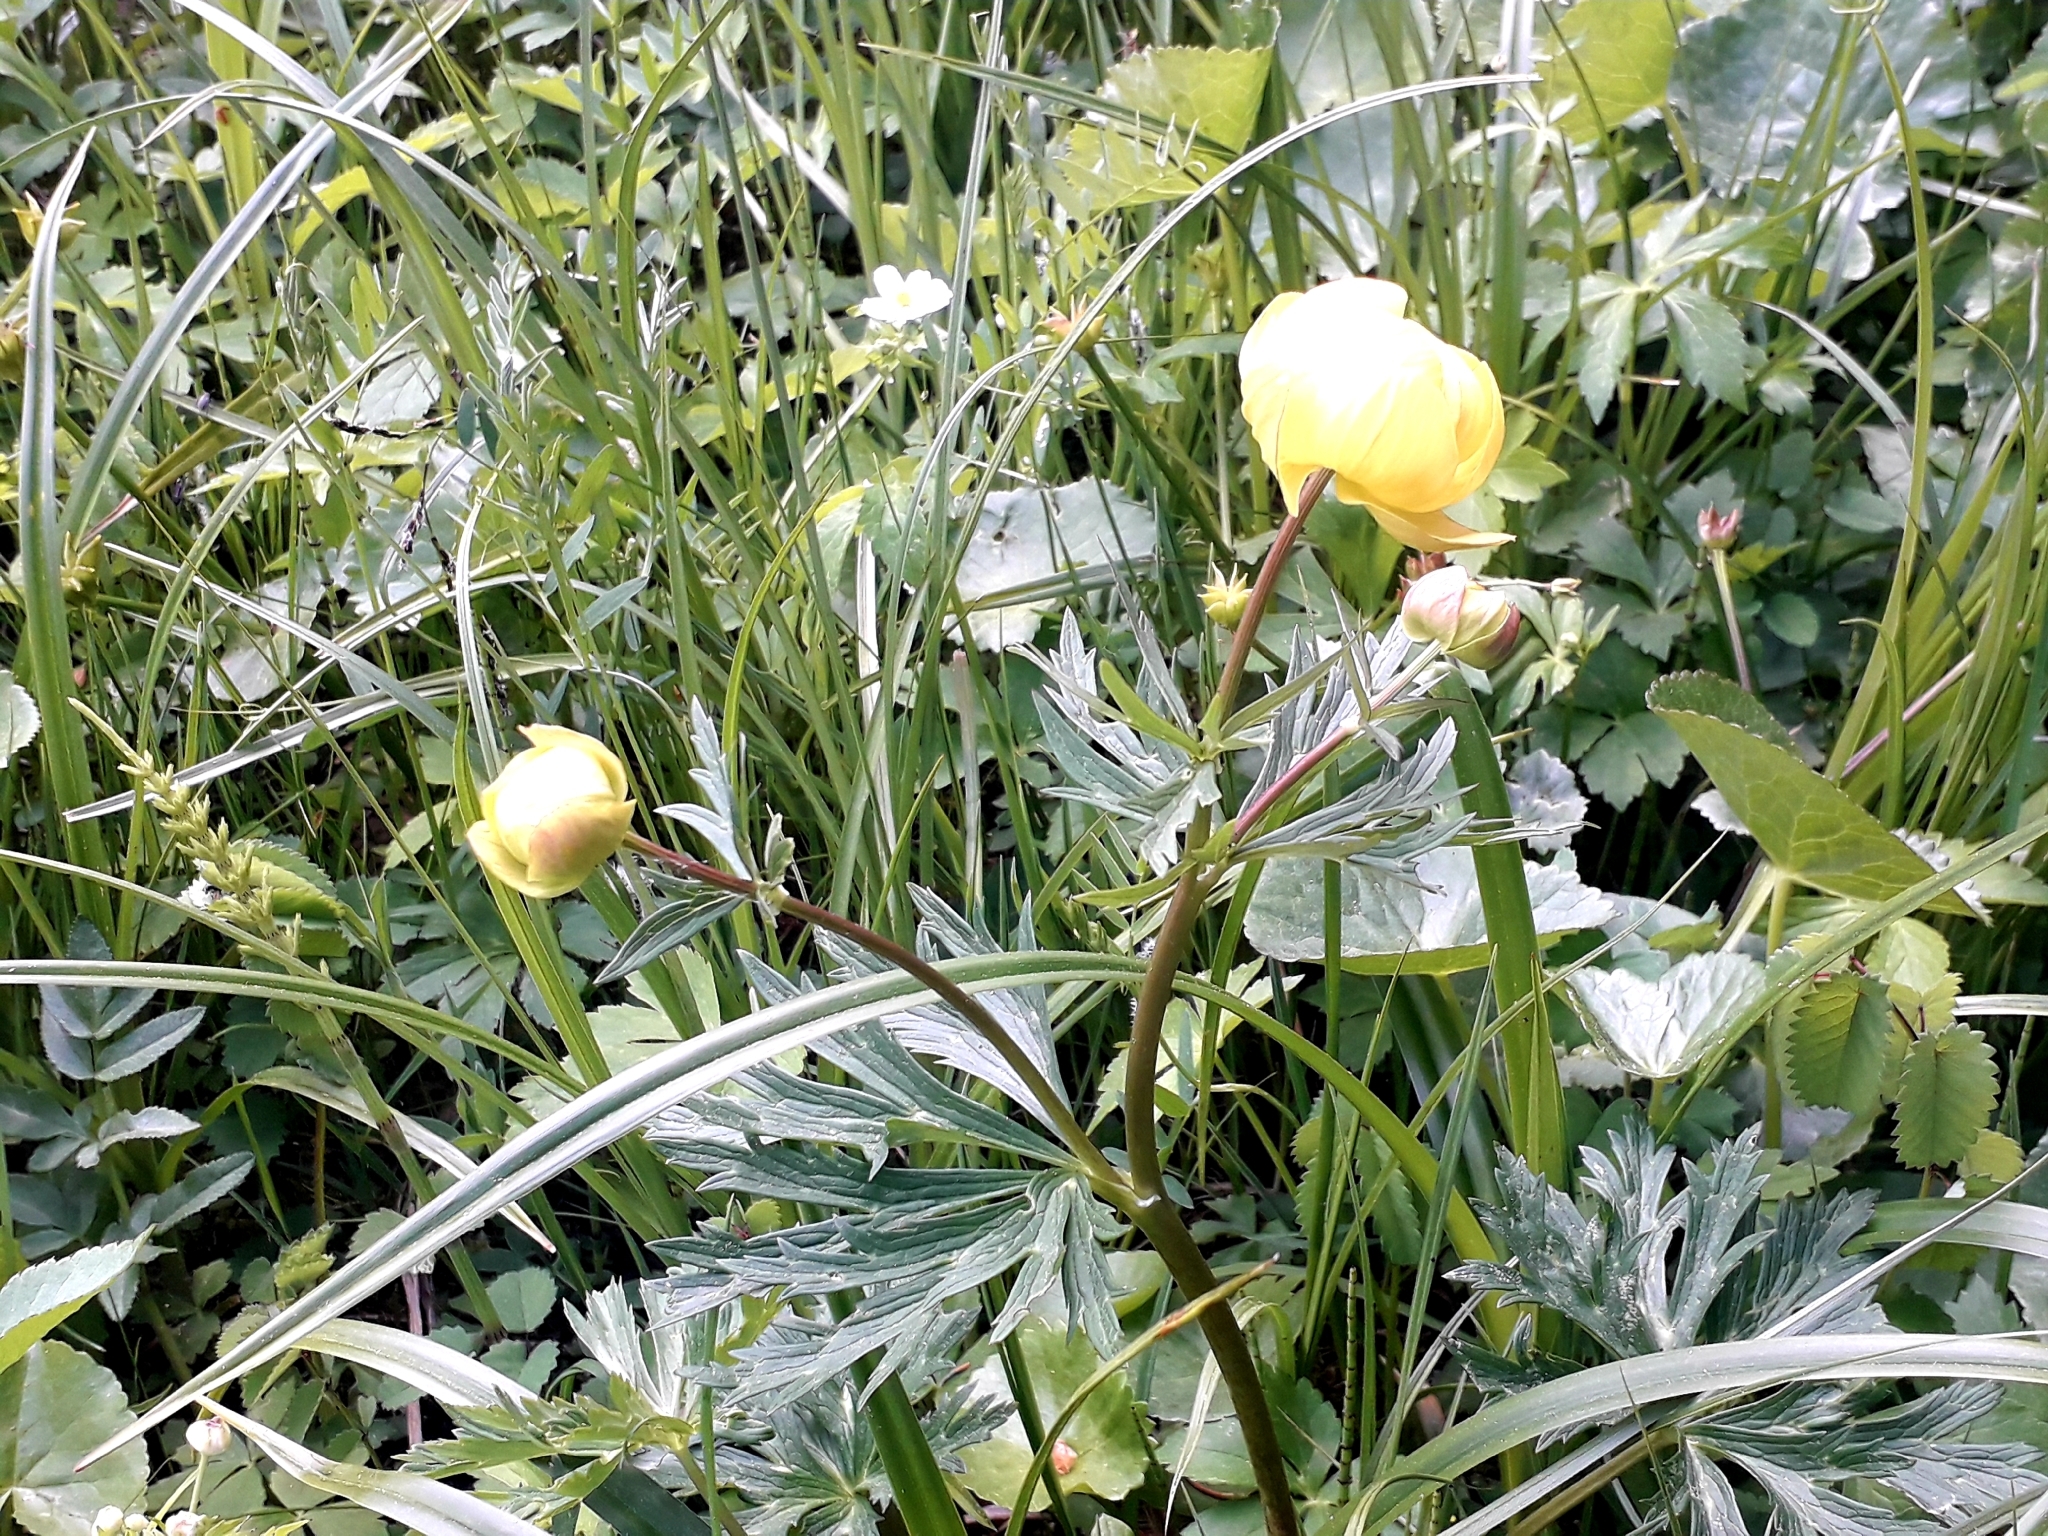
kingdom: Plantae
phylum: Tracheophyta
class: Magnoliopsida
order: Ranunculales
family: Ranunculaceae
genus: Trollius
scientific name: Trollius europaeus
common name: European globeflower
